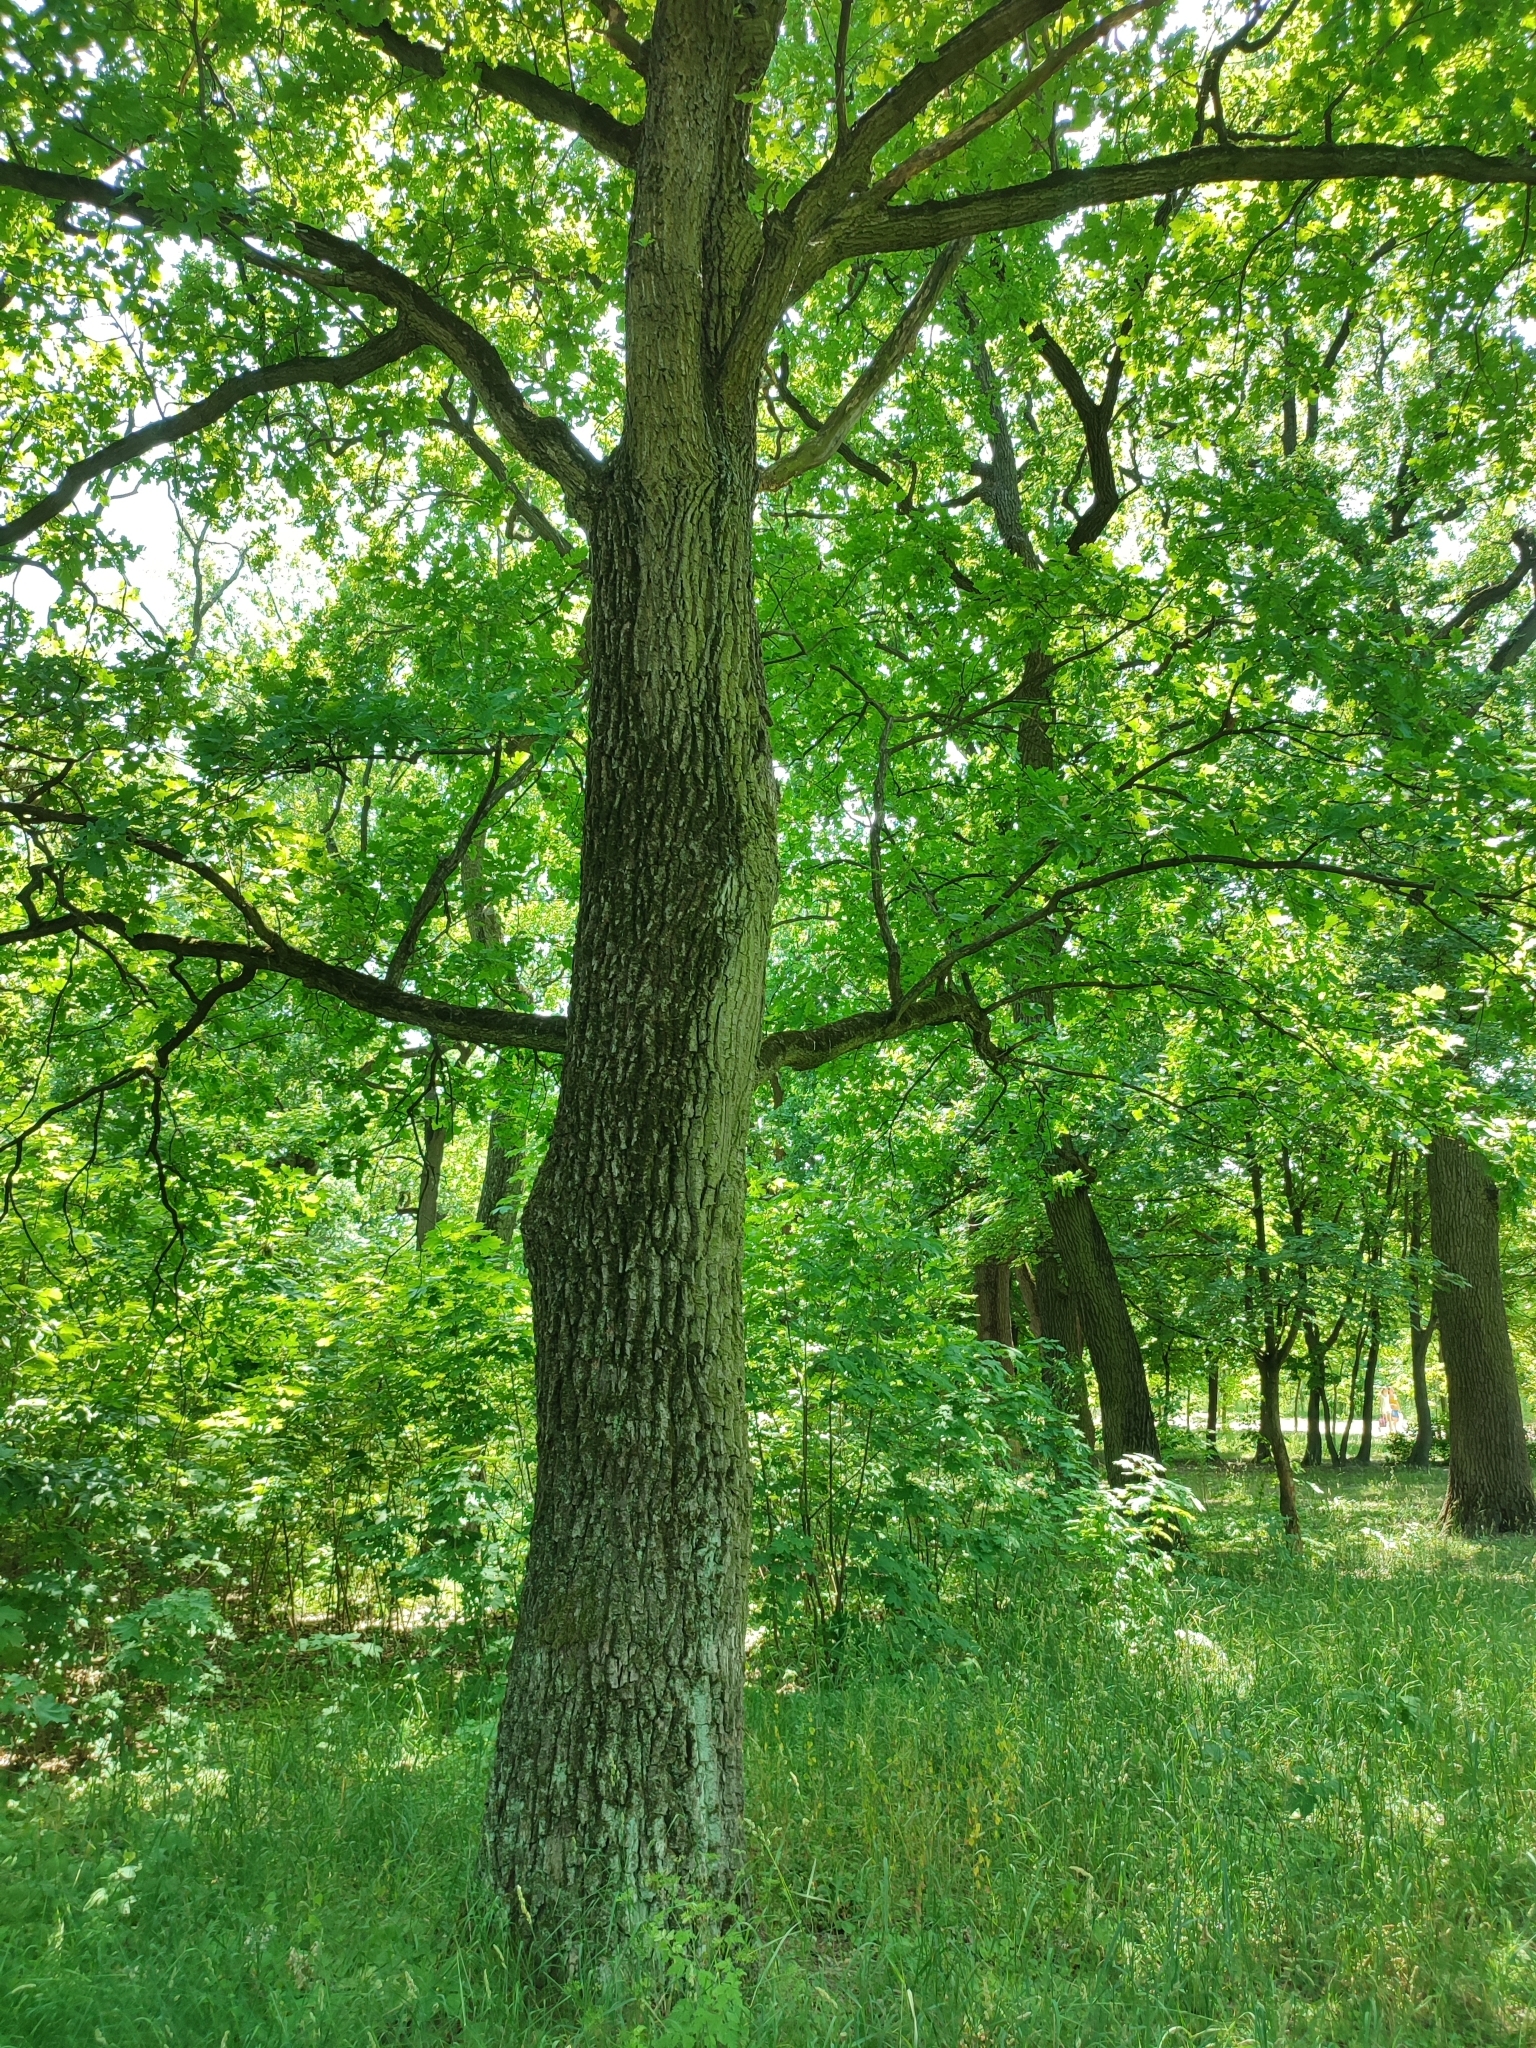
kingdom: Plantae
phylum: Tracheophyta
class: Magnoliopsida
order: Fagales
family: Fagaceae
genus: Quercus
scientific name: Quercus robur
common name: Pedunculate oak
